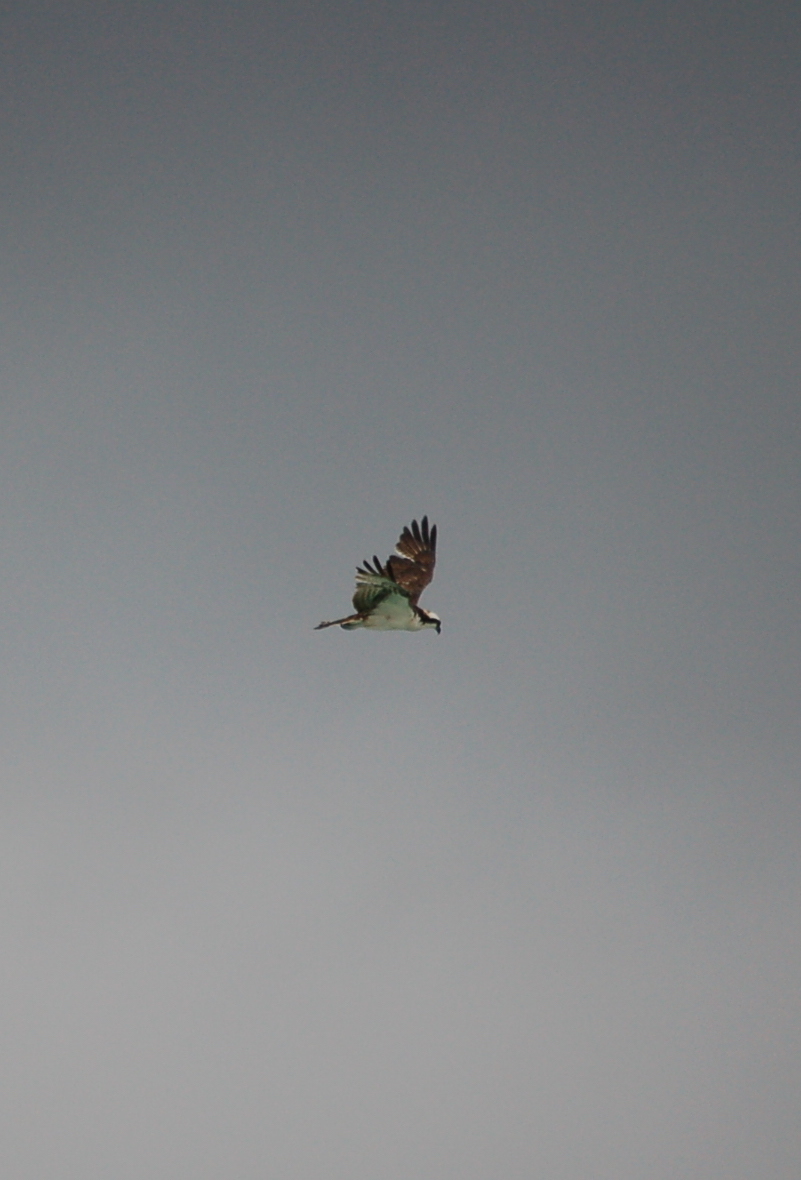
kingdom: Animalia
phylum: Chordata
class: Aves
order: Accipitriformes
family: Pandionidae
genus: Pandion
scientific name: Pandion haliaetus
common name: Osprey
